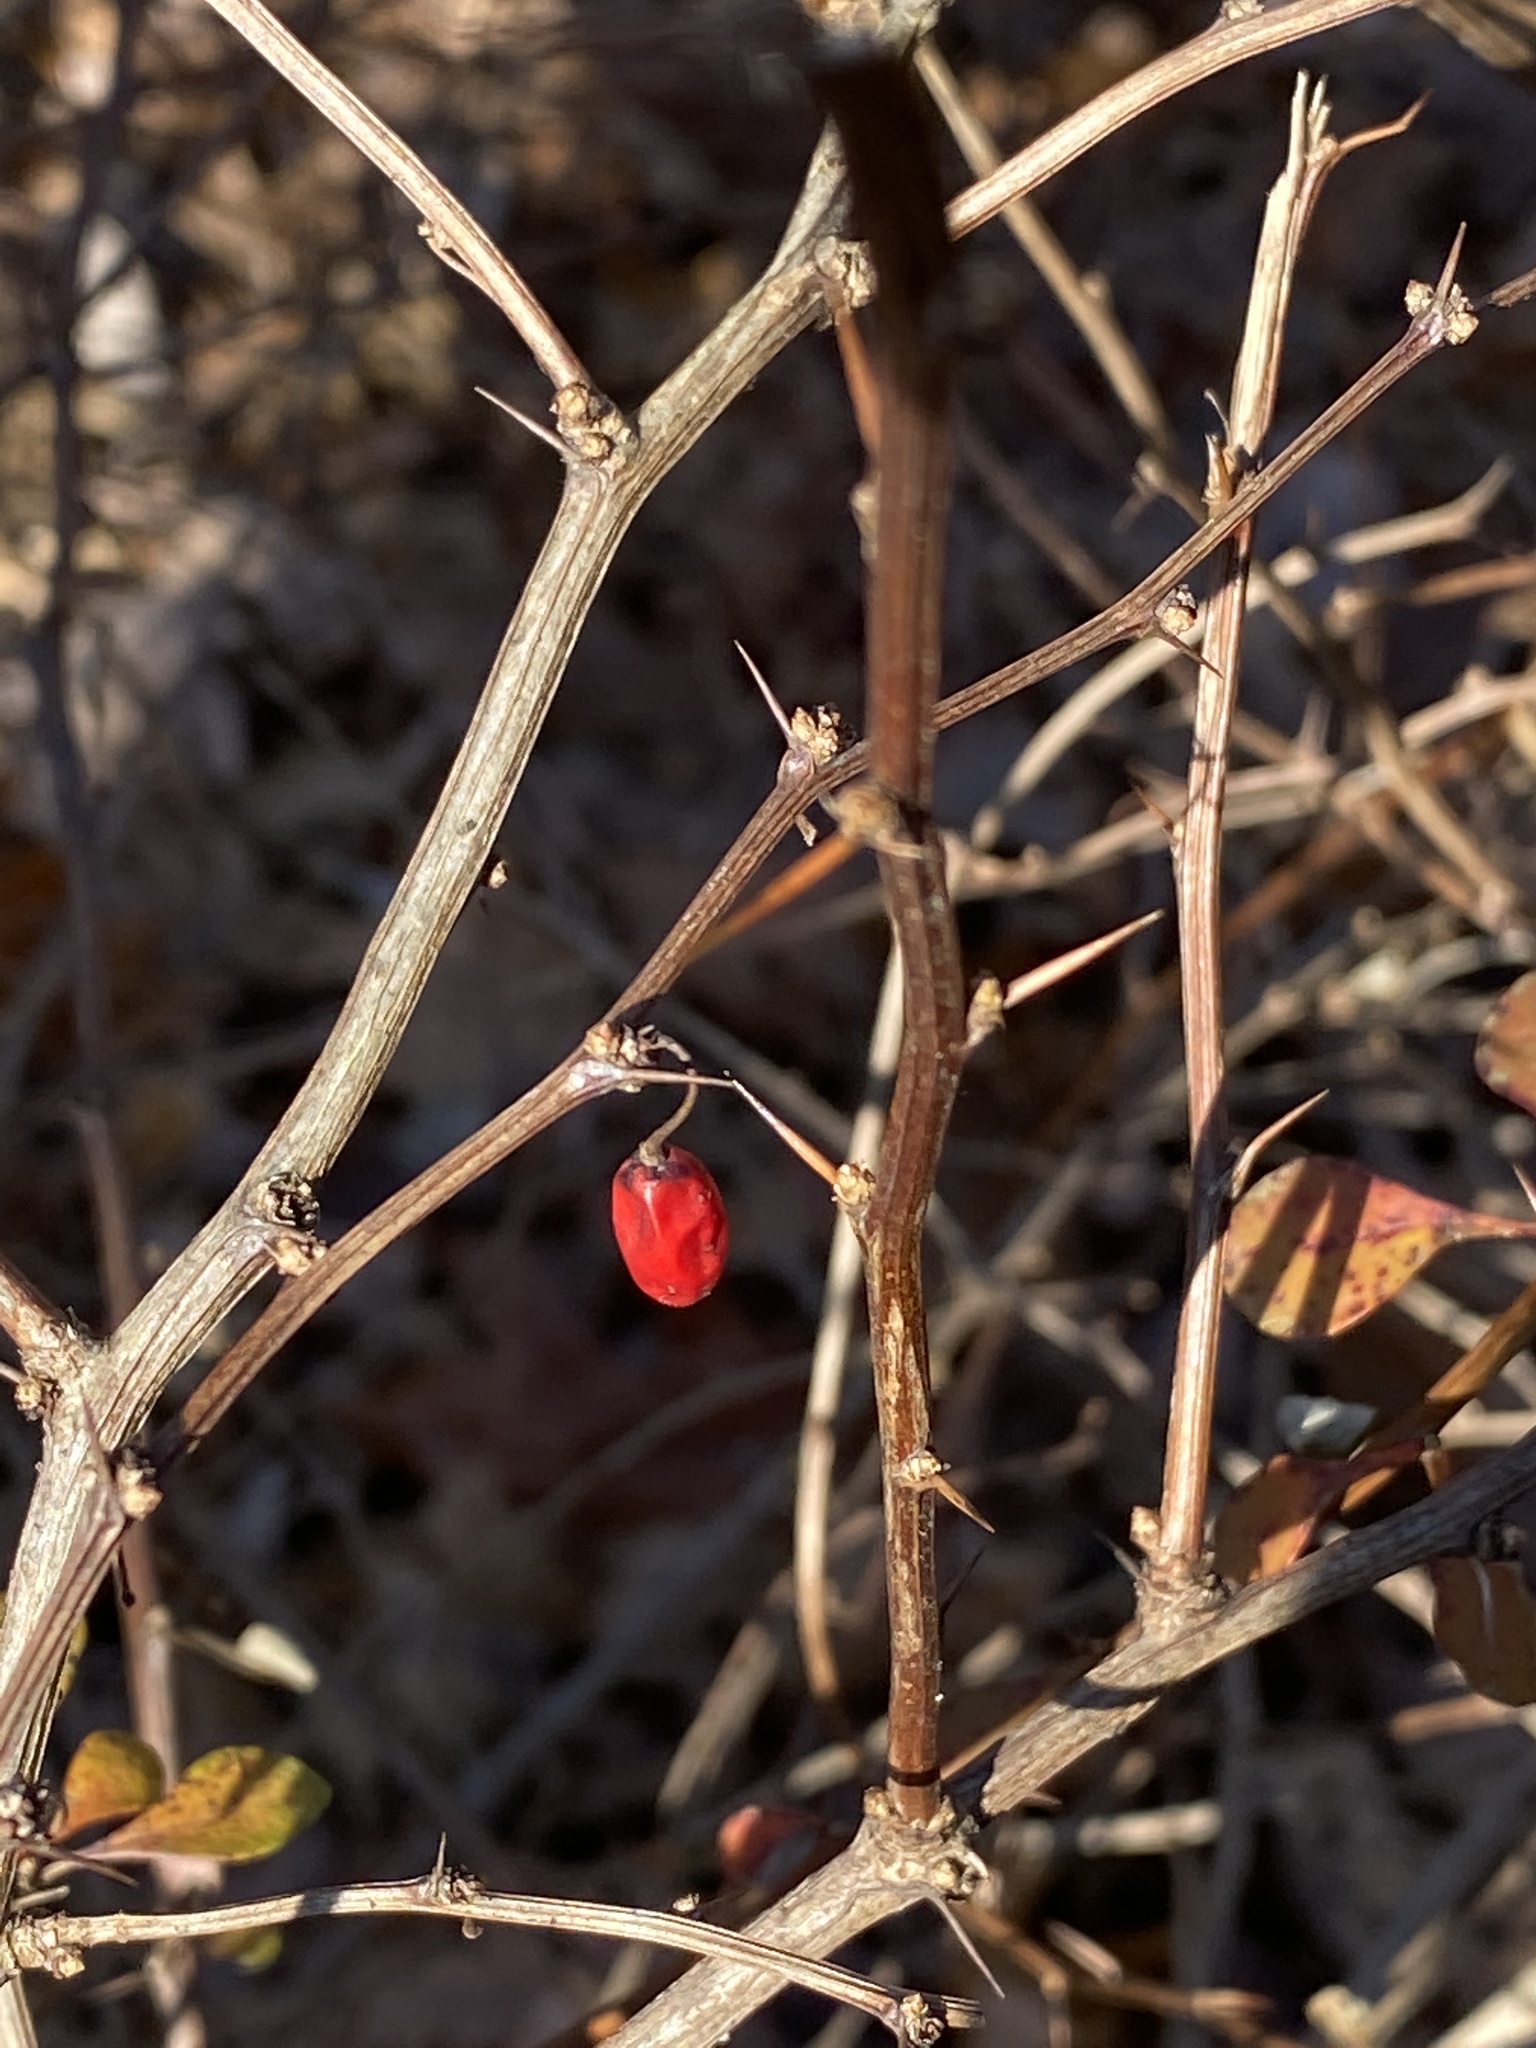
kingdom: Plantae
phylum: Tracheophyta
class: Magnoliopsida
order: Ranunculales
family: Berberidaceae
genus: Berberis
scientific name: Berberis thunbergii
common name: Japanese barberry
